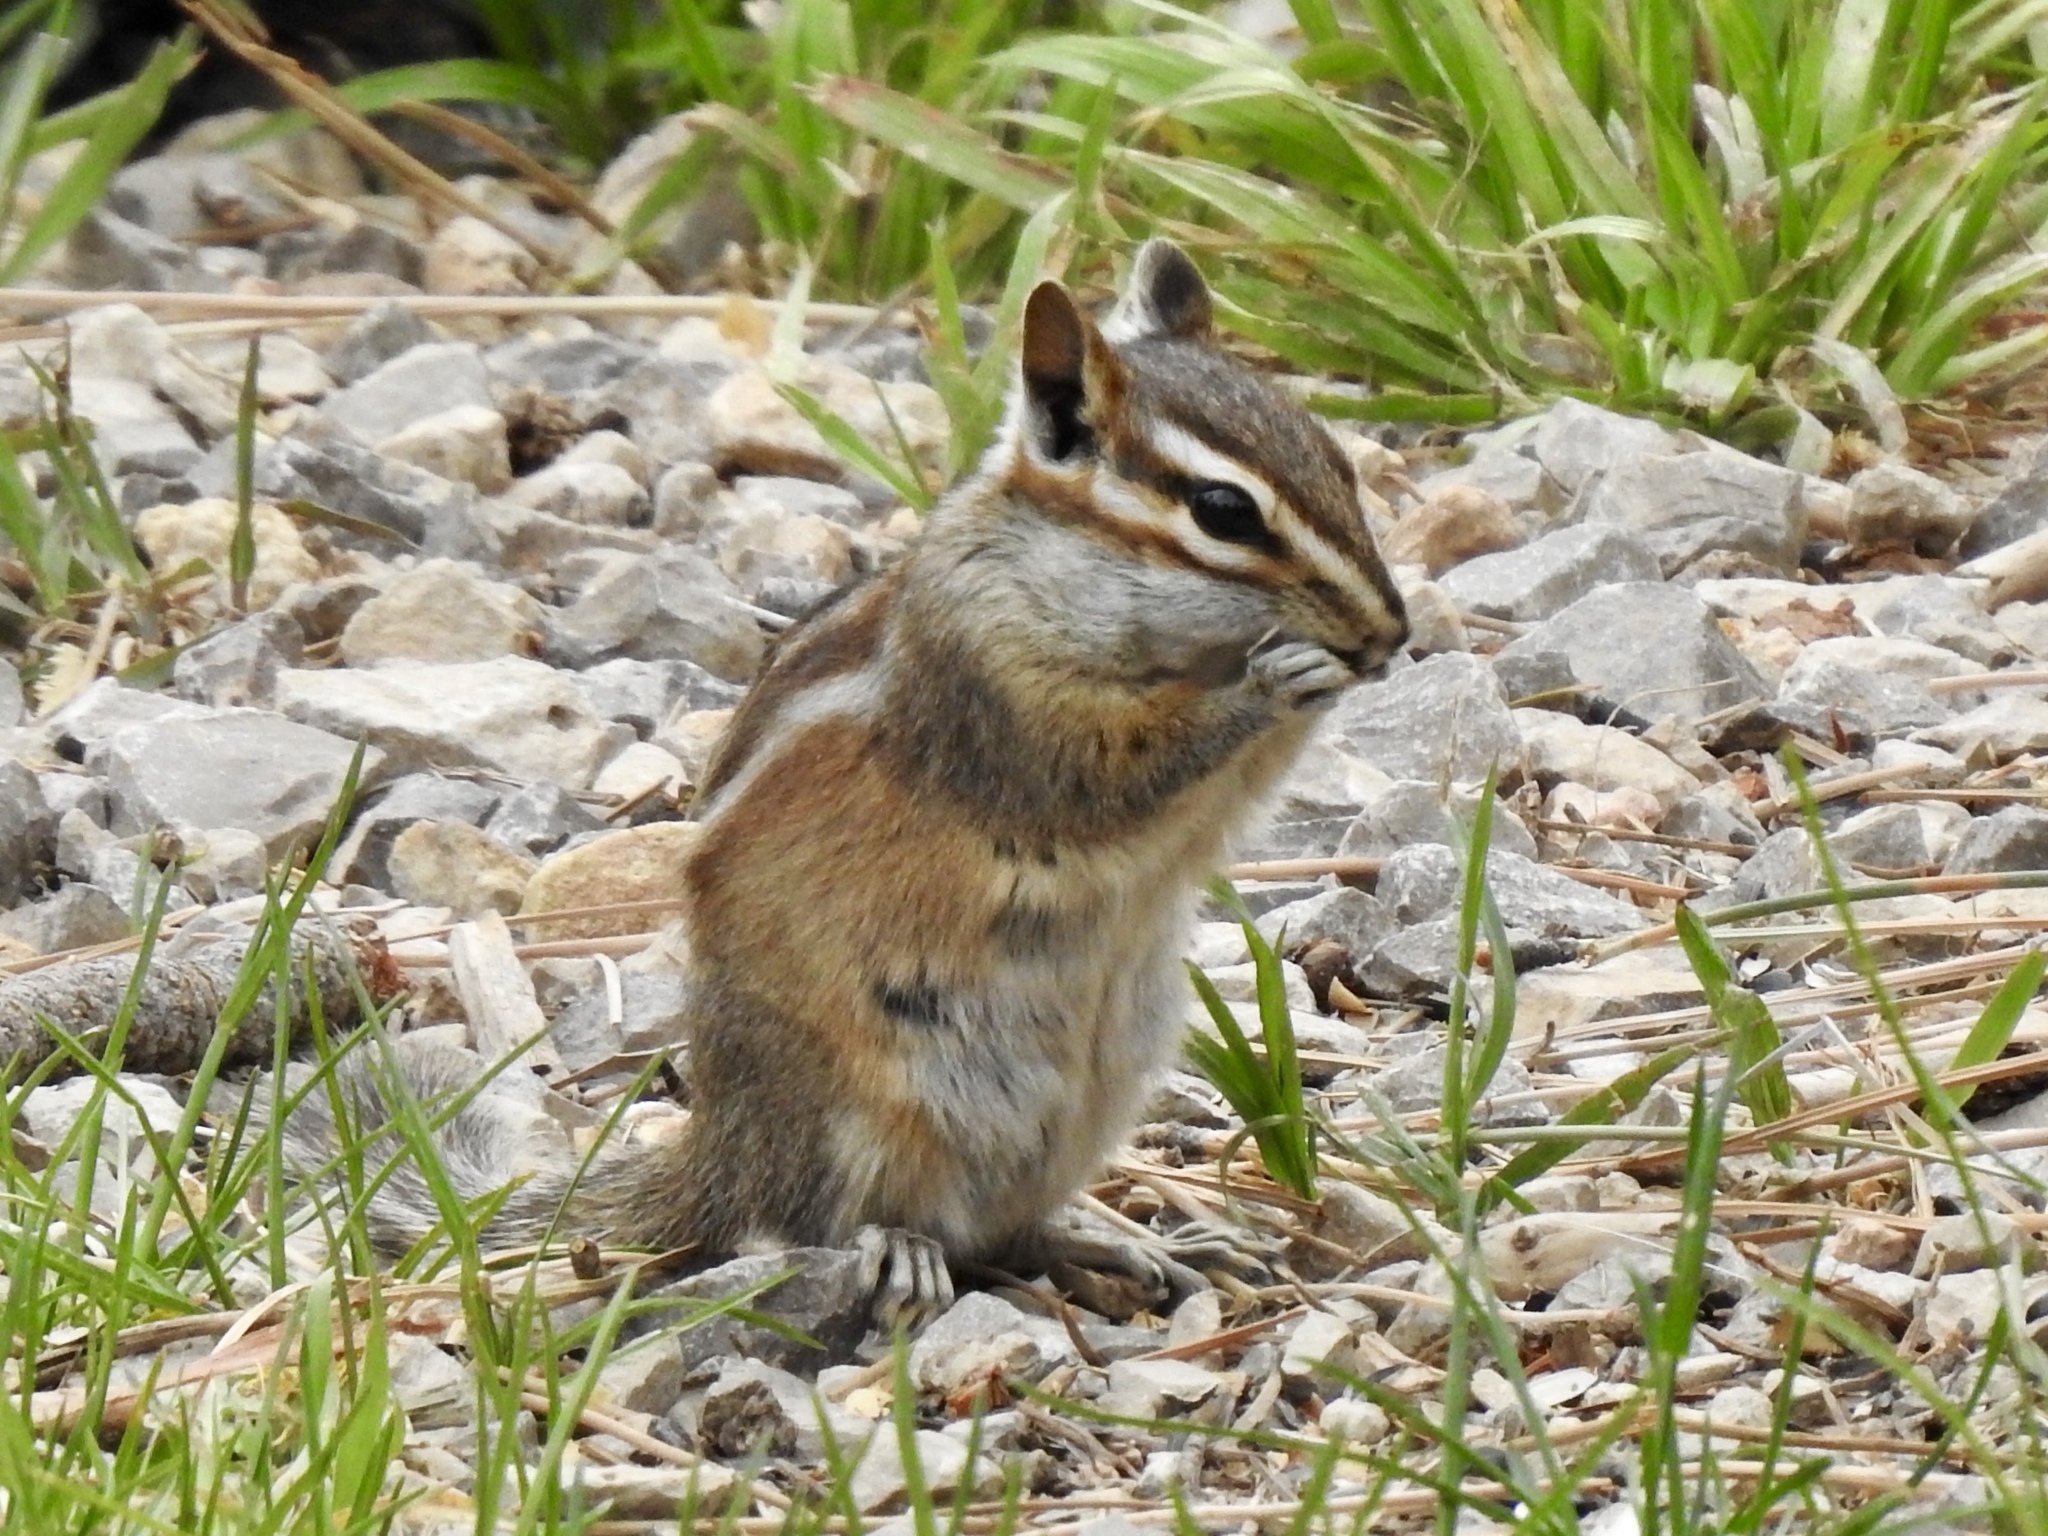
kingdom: Animalia
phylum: Chordata
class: Mammalia
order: Rodentia
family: Sciuridae
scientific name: Sciuridae
